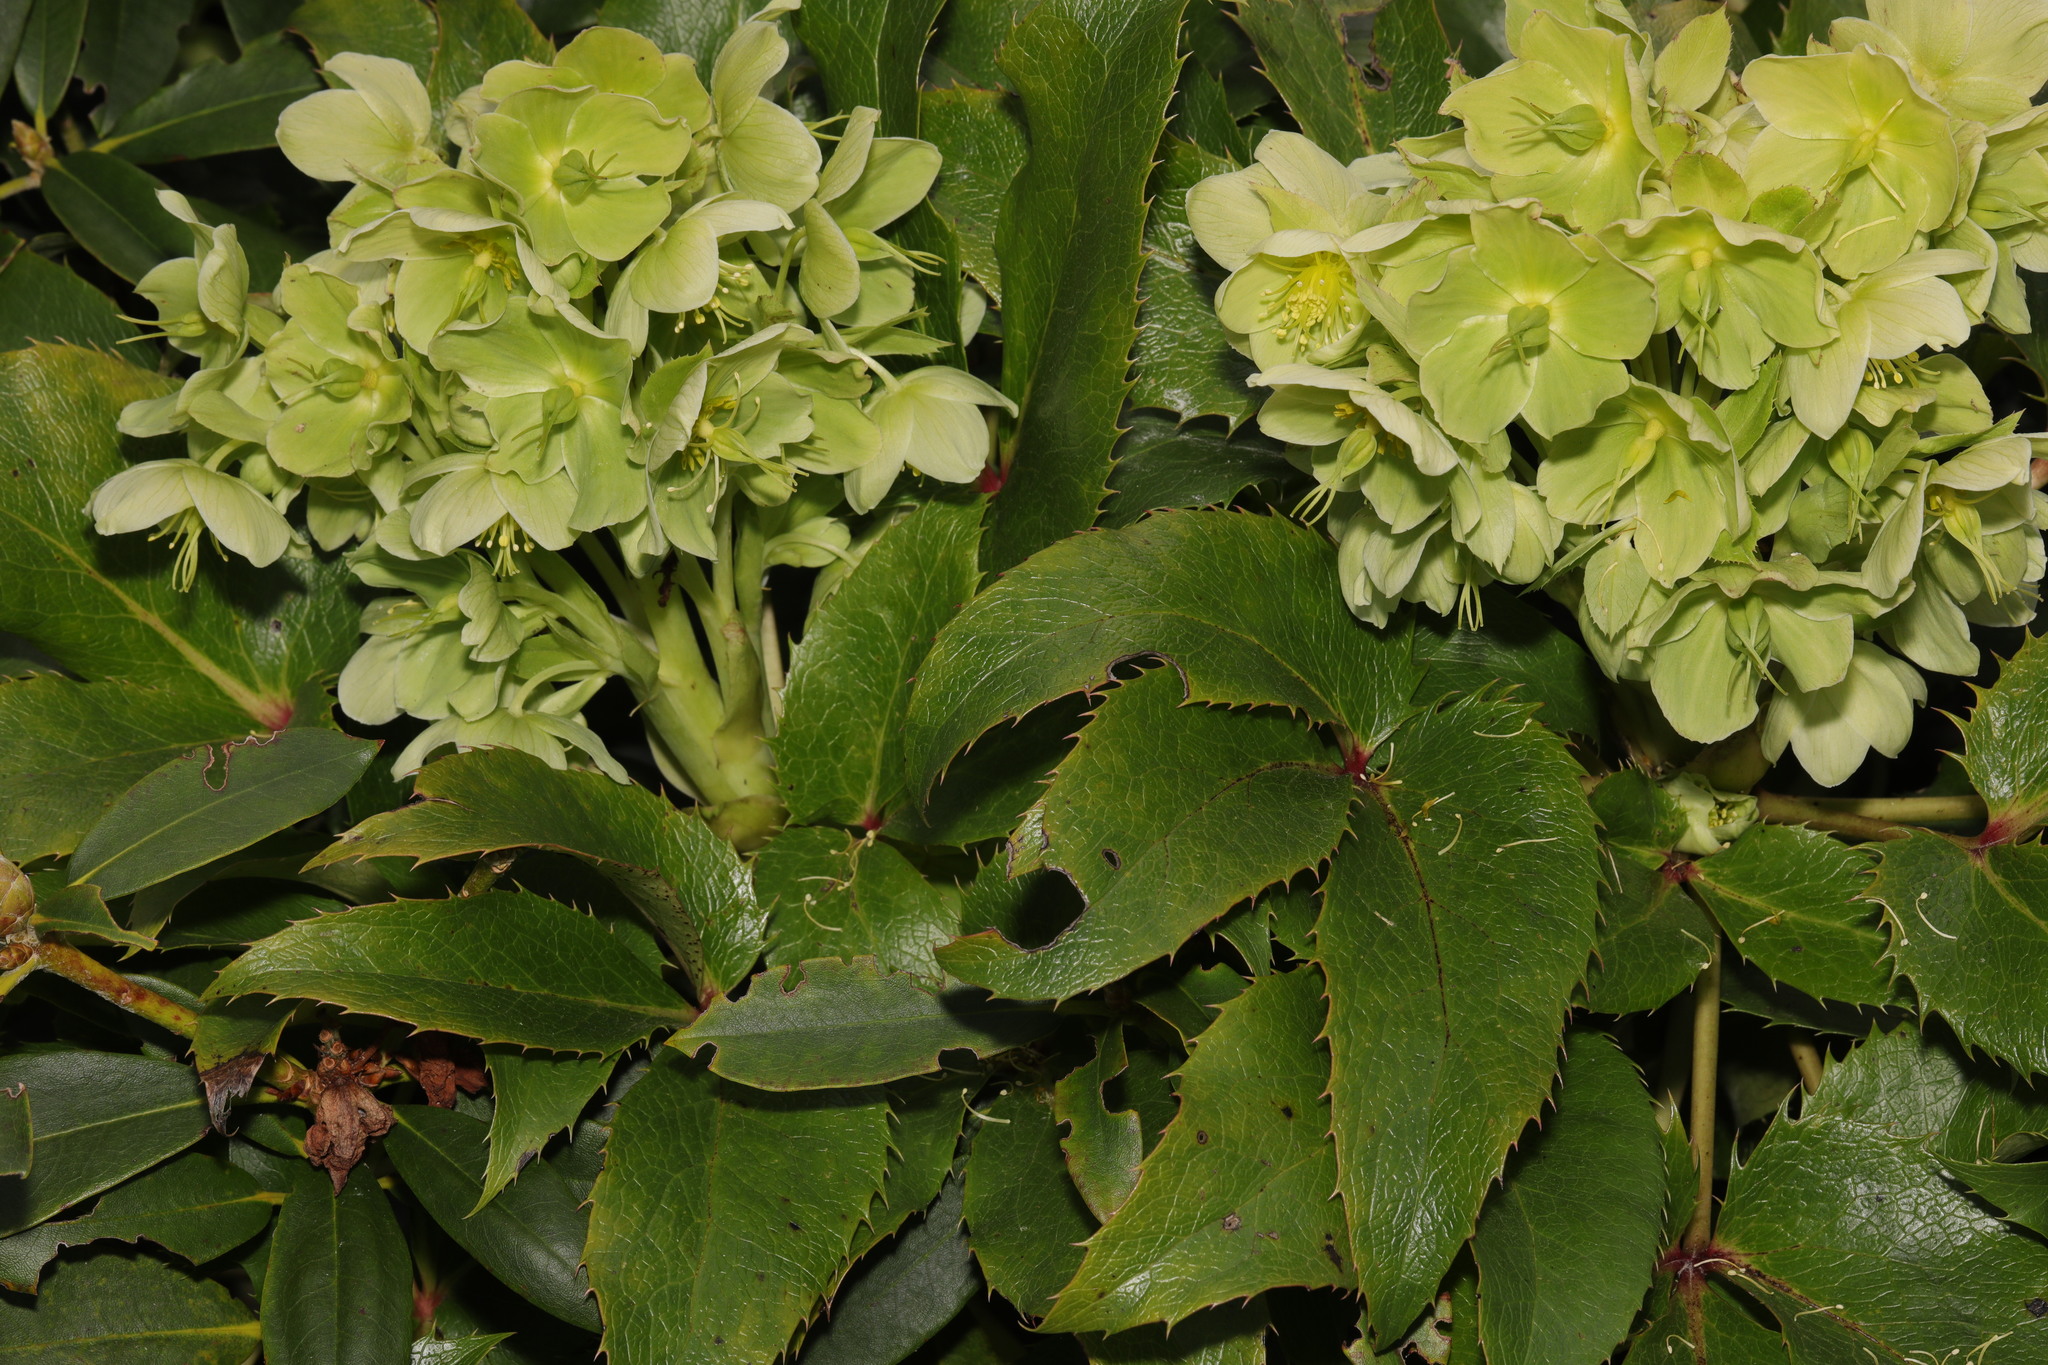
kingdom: Plantae
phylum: Tracheophyta
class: Magnoliopsida
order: Ranunculales
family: Ranunculaceae
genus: Helleborus
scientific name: Helleborus argutifolius
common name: Corsican hellebore
